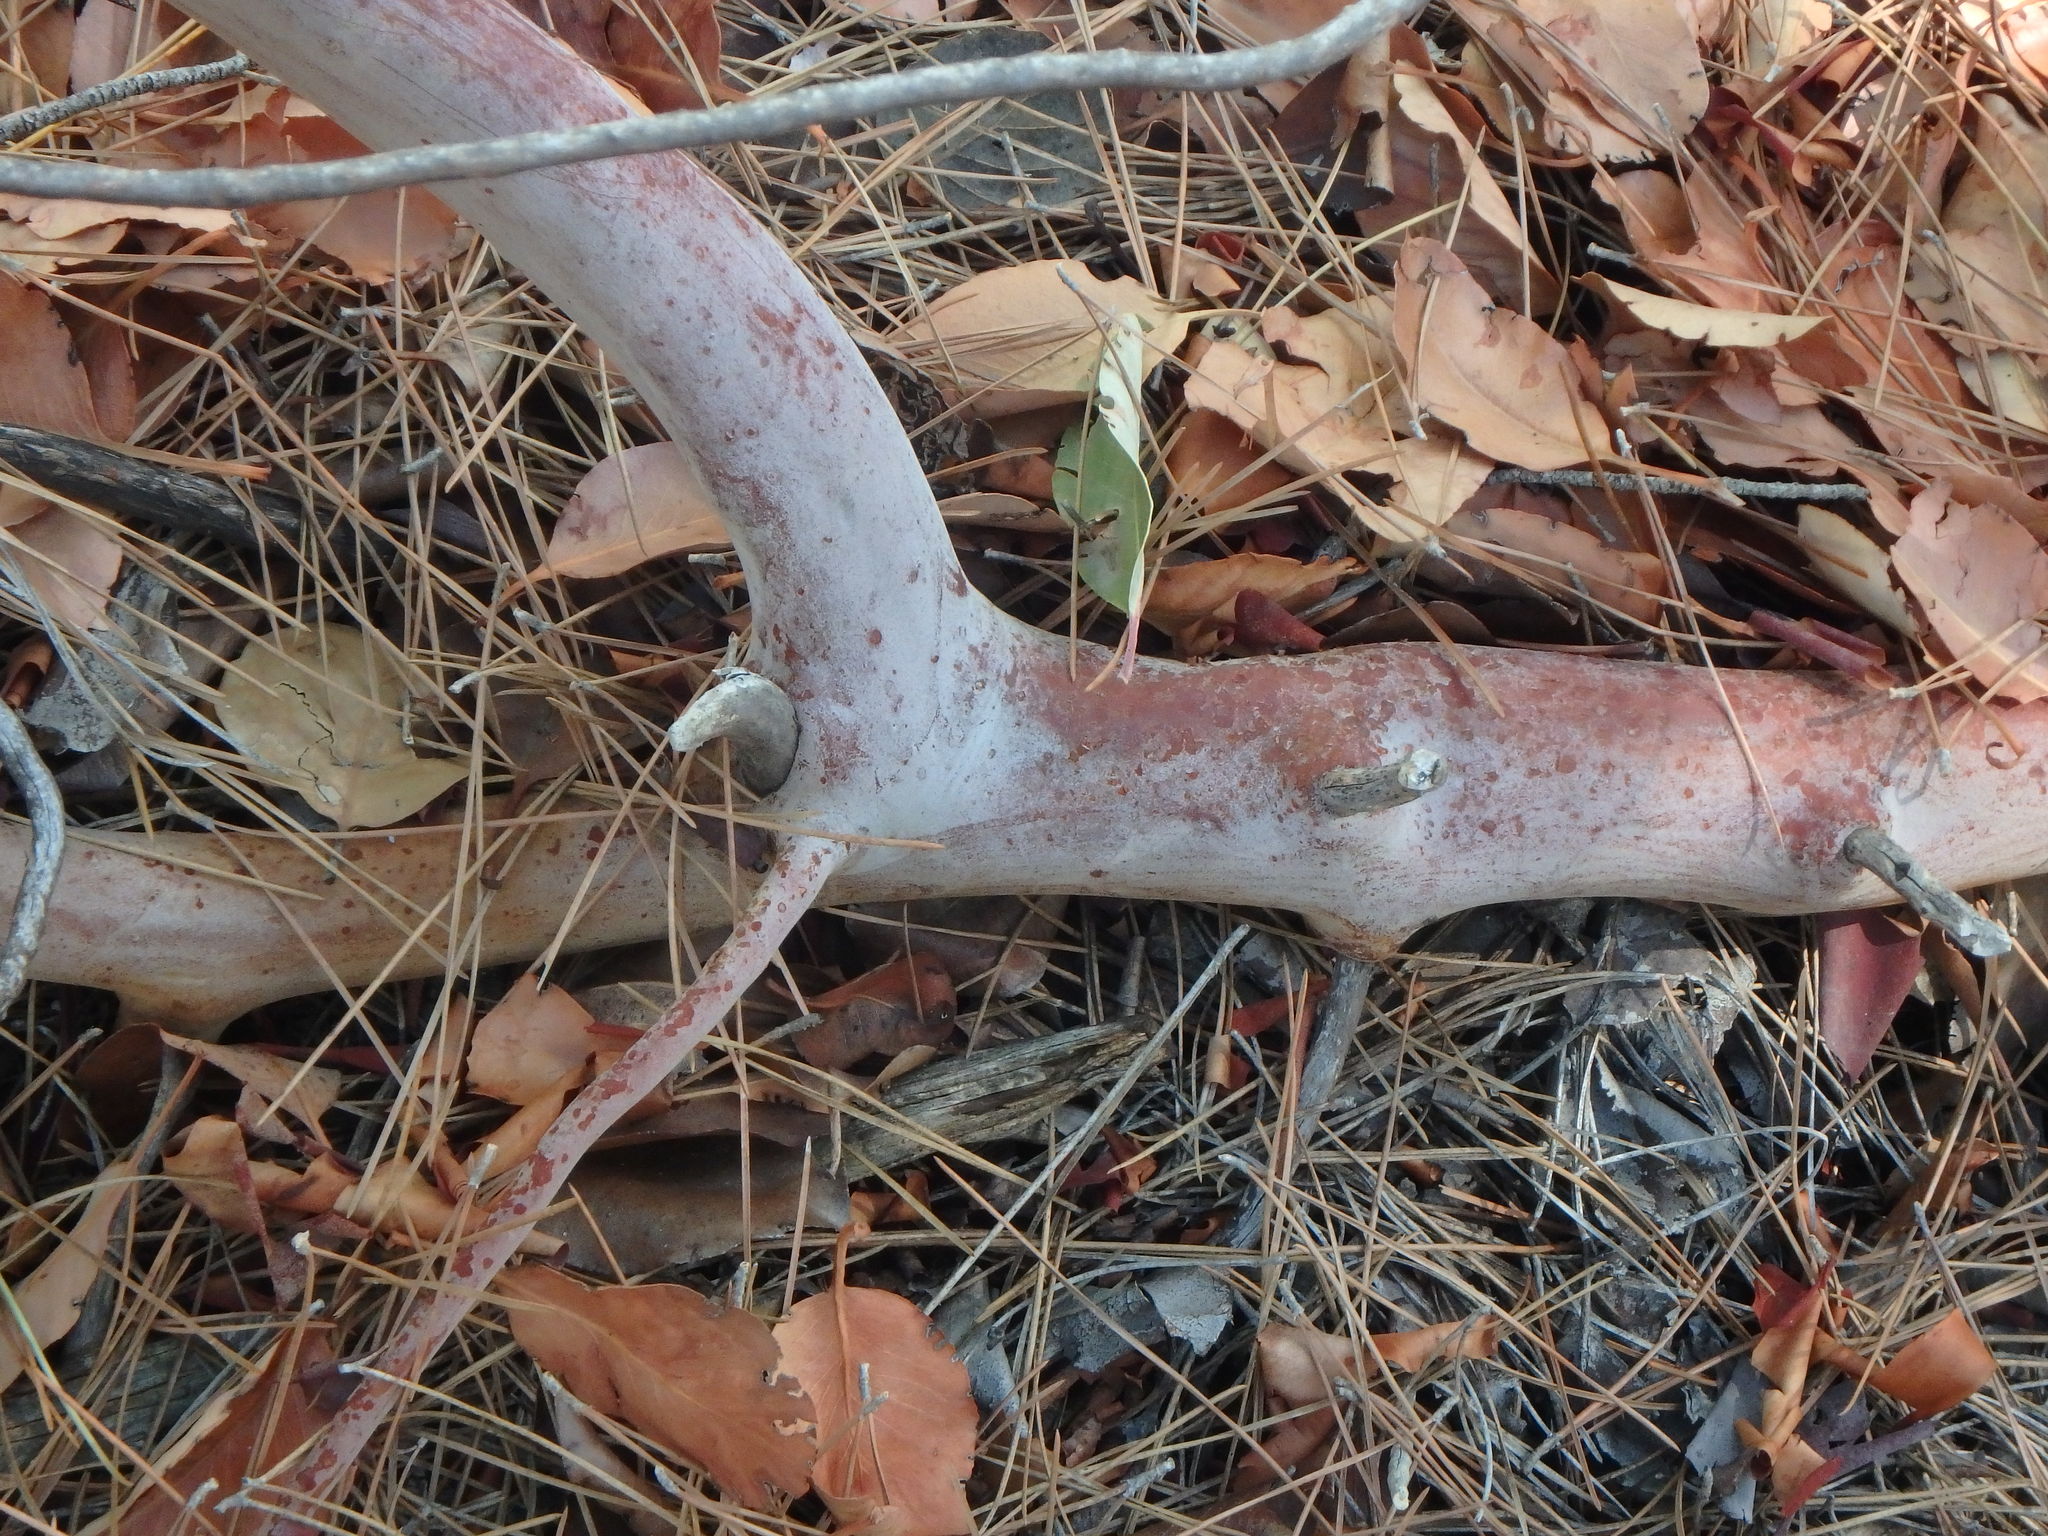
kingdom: Plantae
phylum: Tracheophyta
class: Magnoliopsida
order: Ericales
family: Ericaceae
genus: Arbutus
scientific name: Arbutus andrachne
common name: Greek strawberry tree
